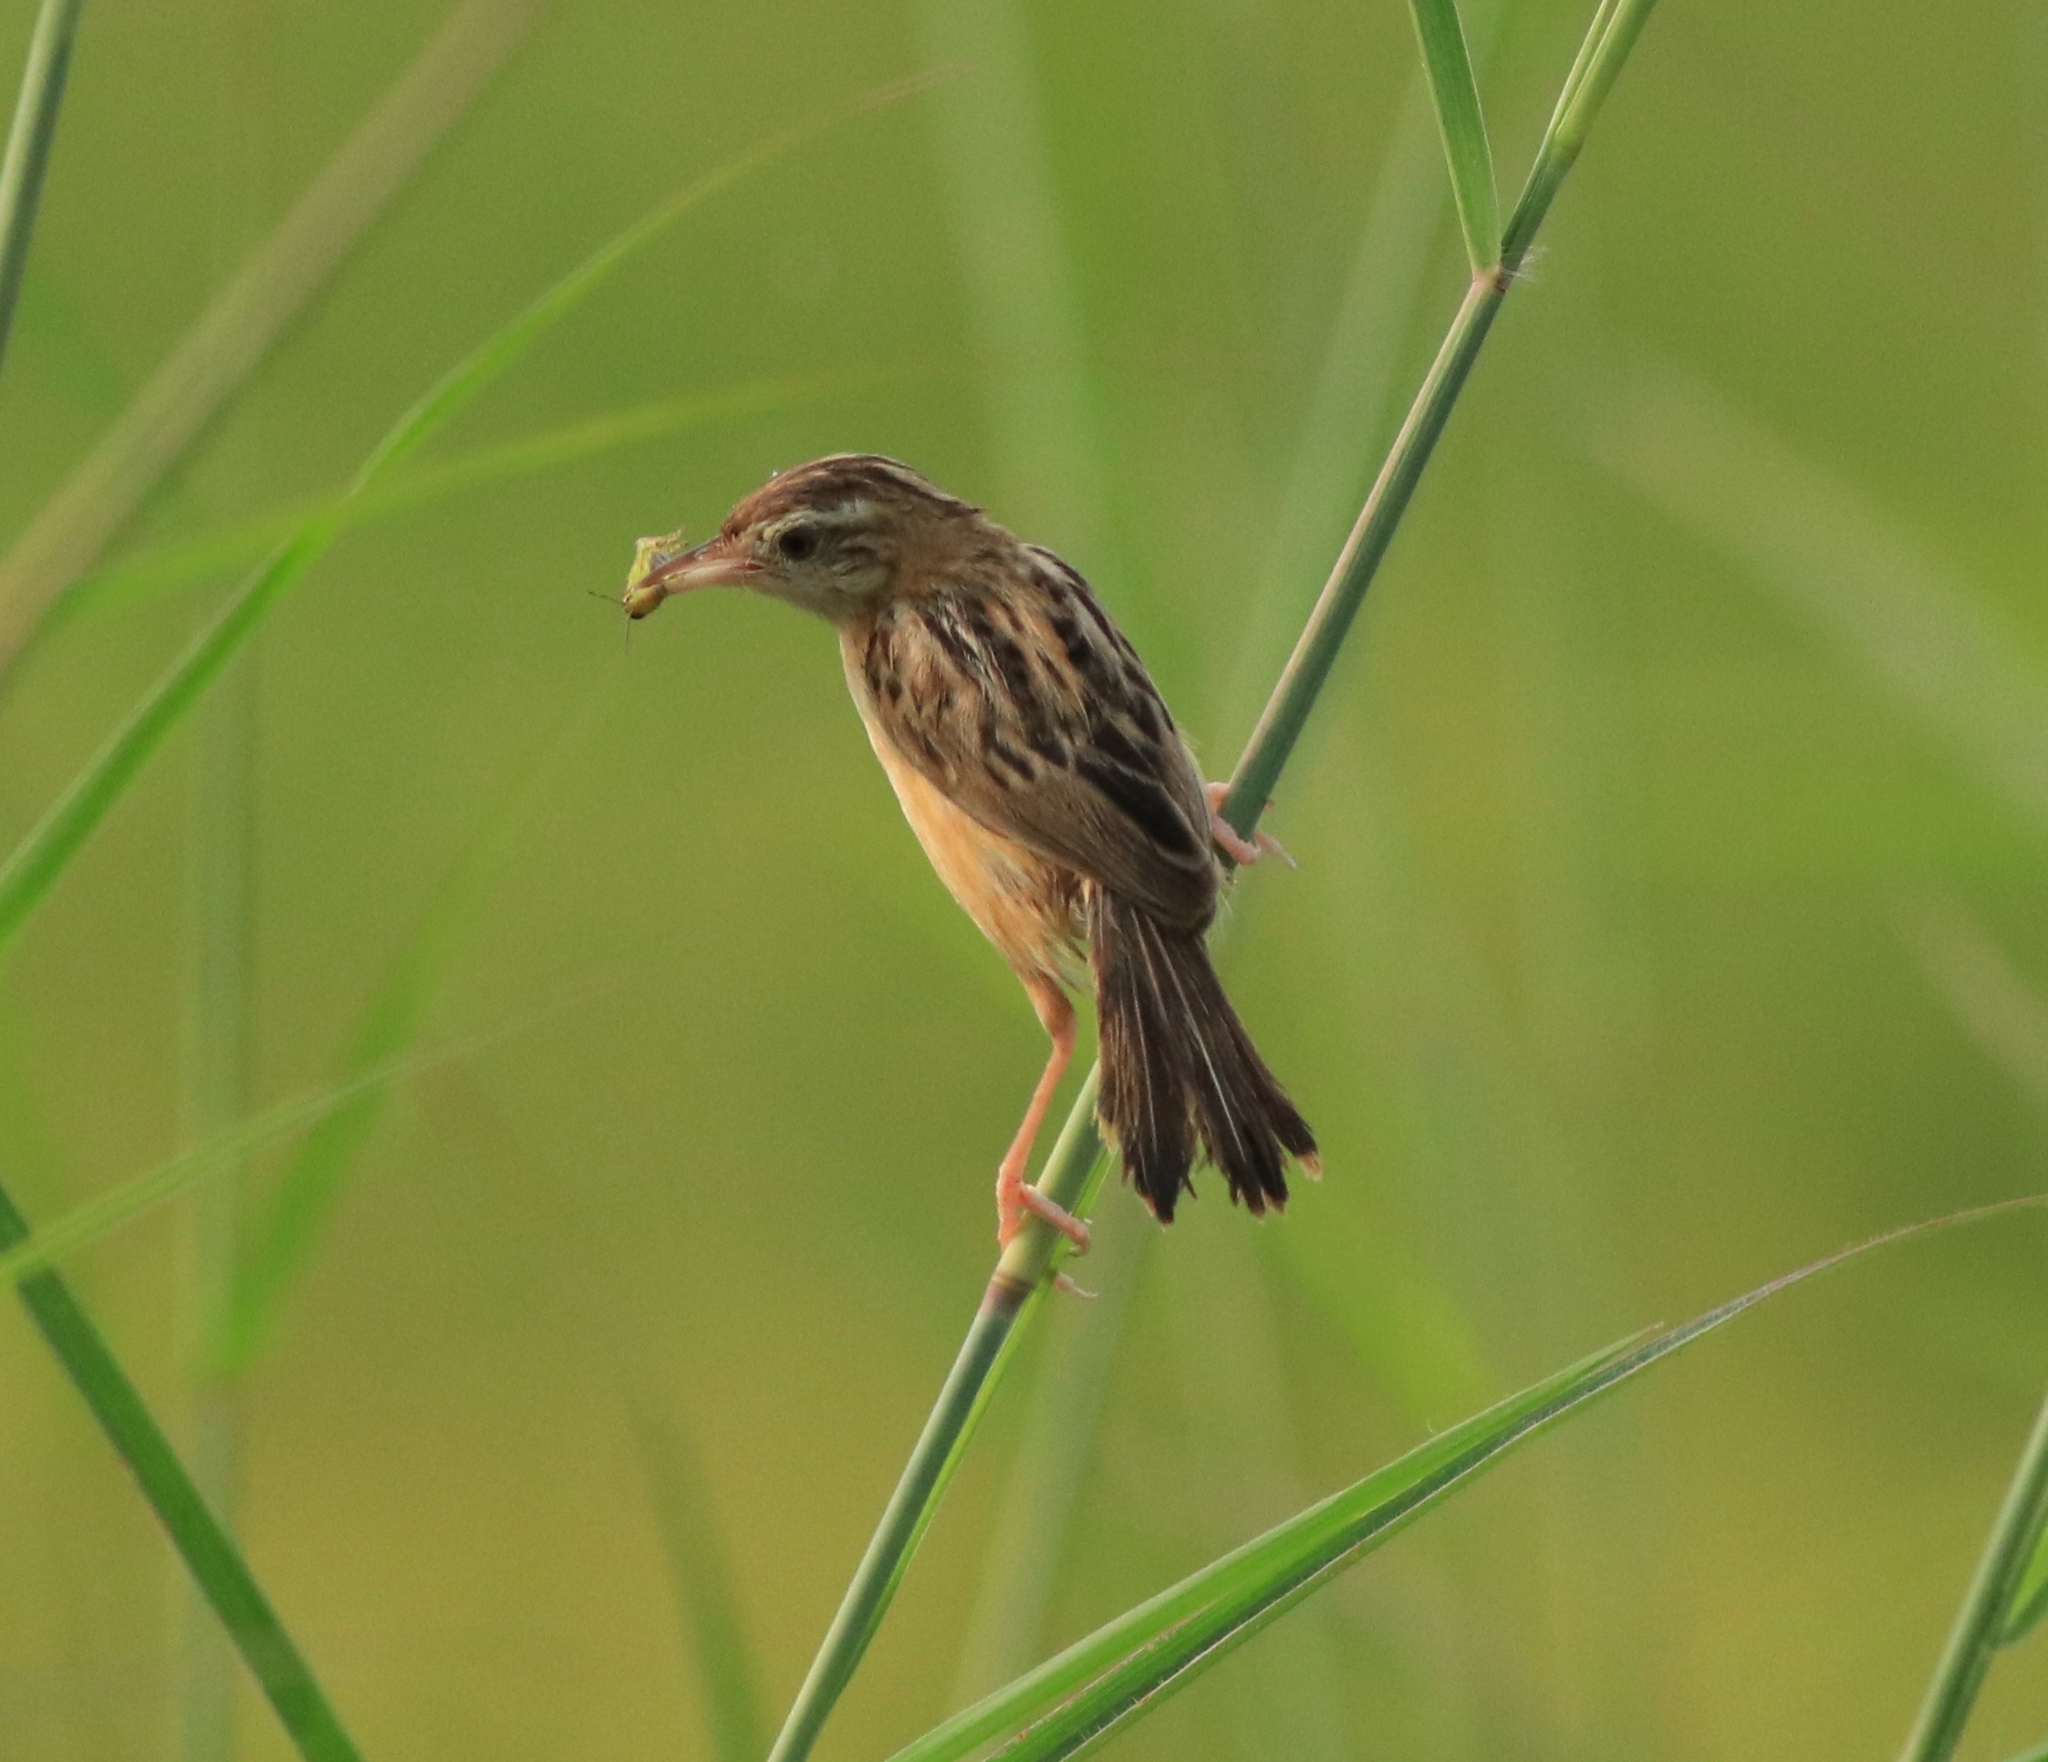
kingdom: Animalia
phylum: Chordata
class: Aves
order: Passeriformes
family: Cisticolidae
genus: Cisticola
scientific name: Cisticola juncidis
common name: Zitting cisticola
